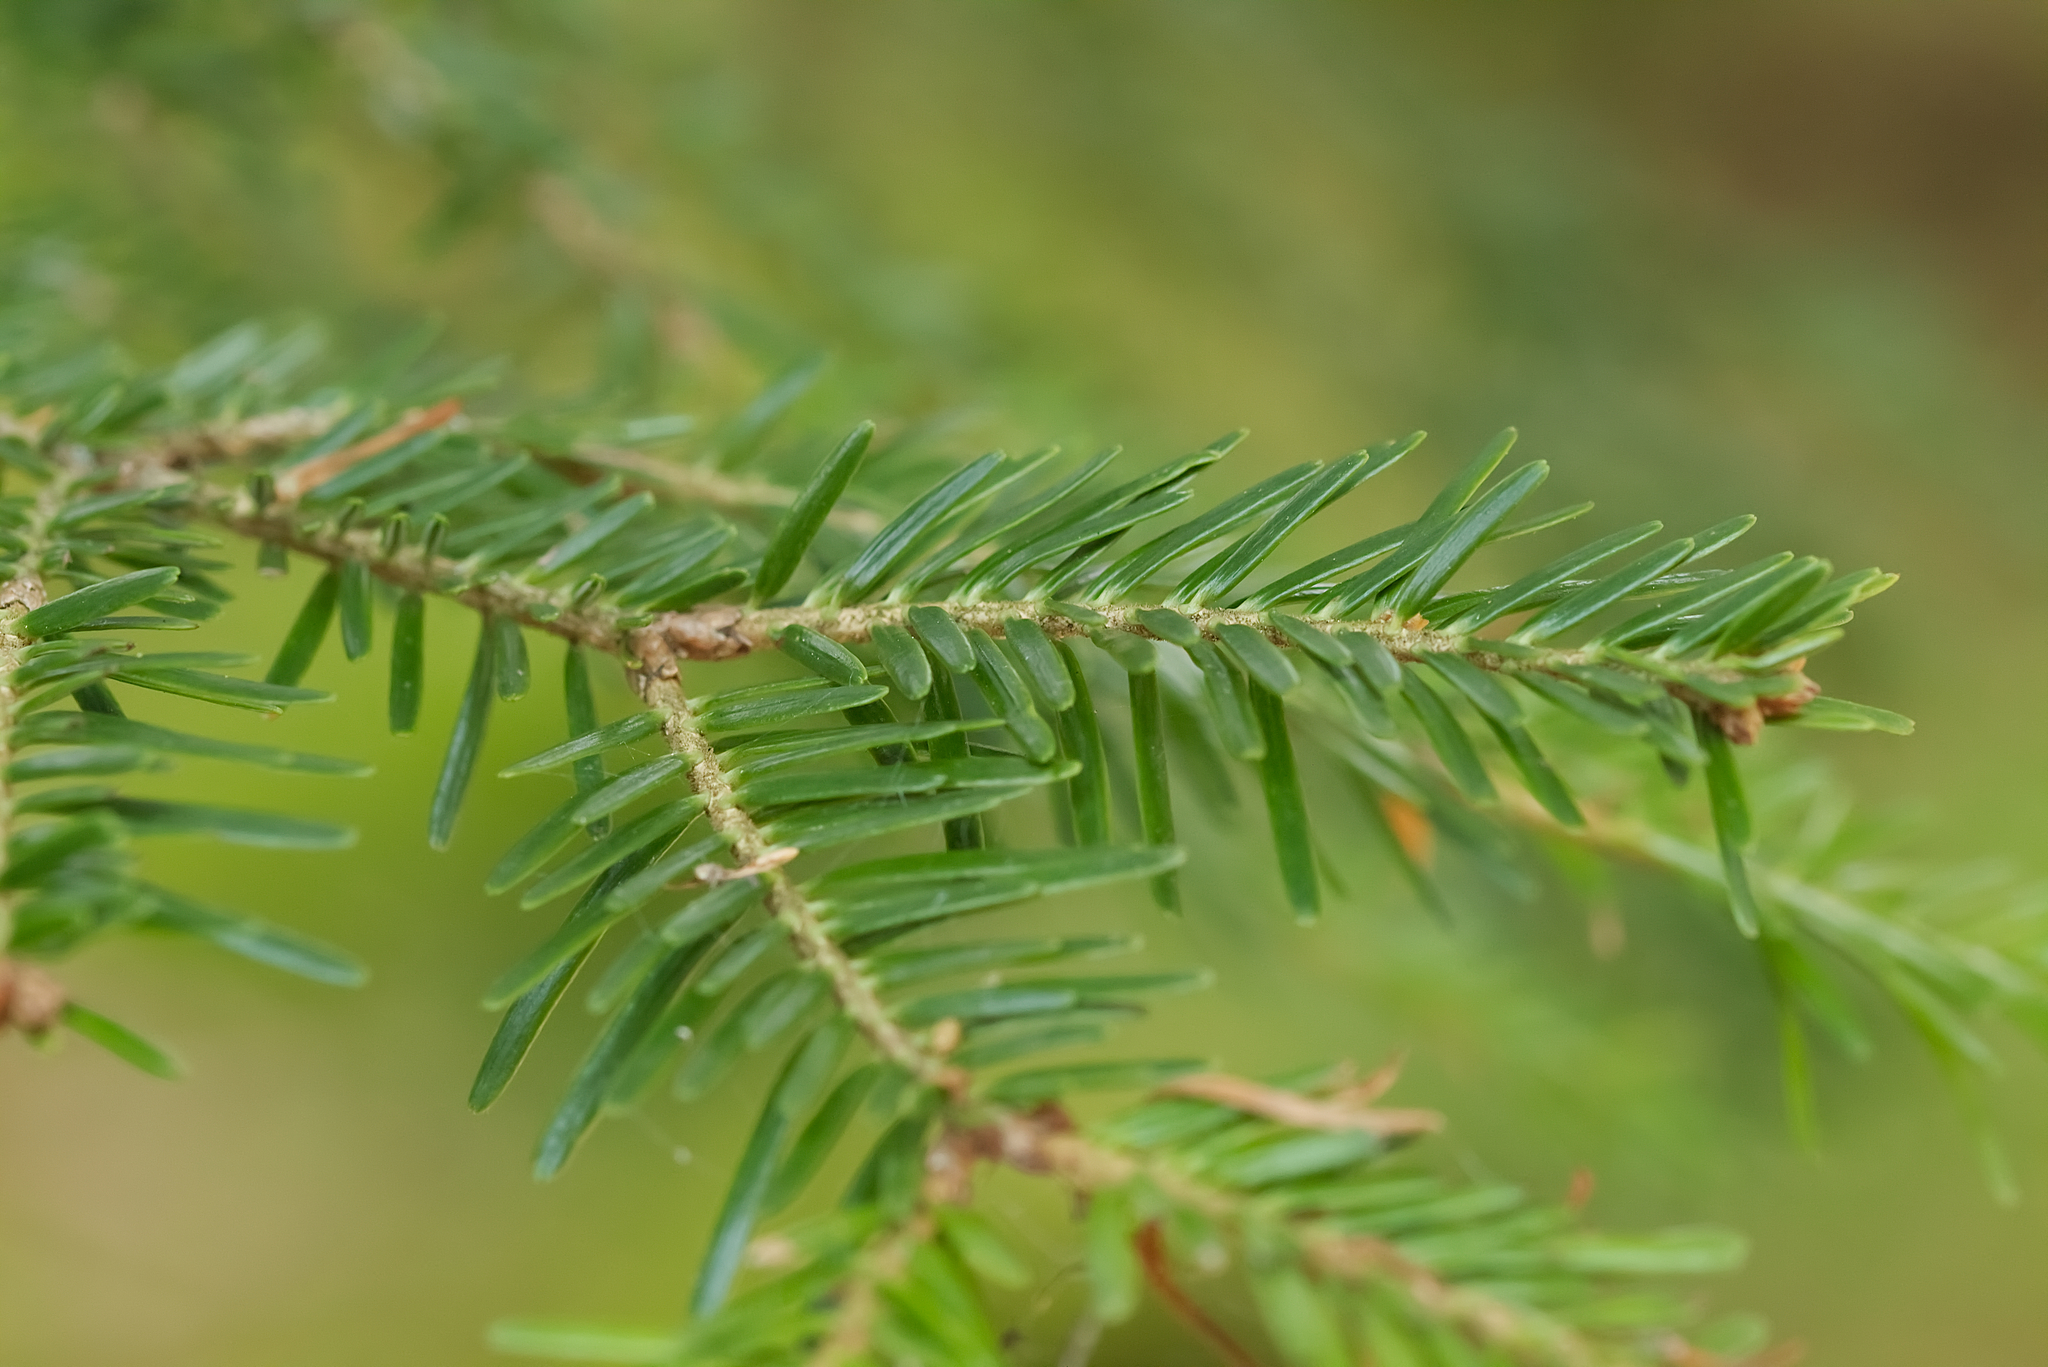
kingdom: Plantae
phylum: Tracheophyta
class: Pinopsida
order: Pinales
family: Pinaceae
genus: Abies
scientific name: Abies alba
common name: Silver fir
